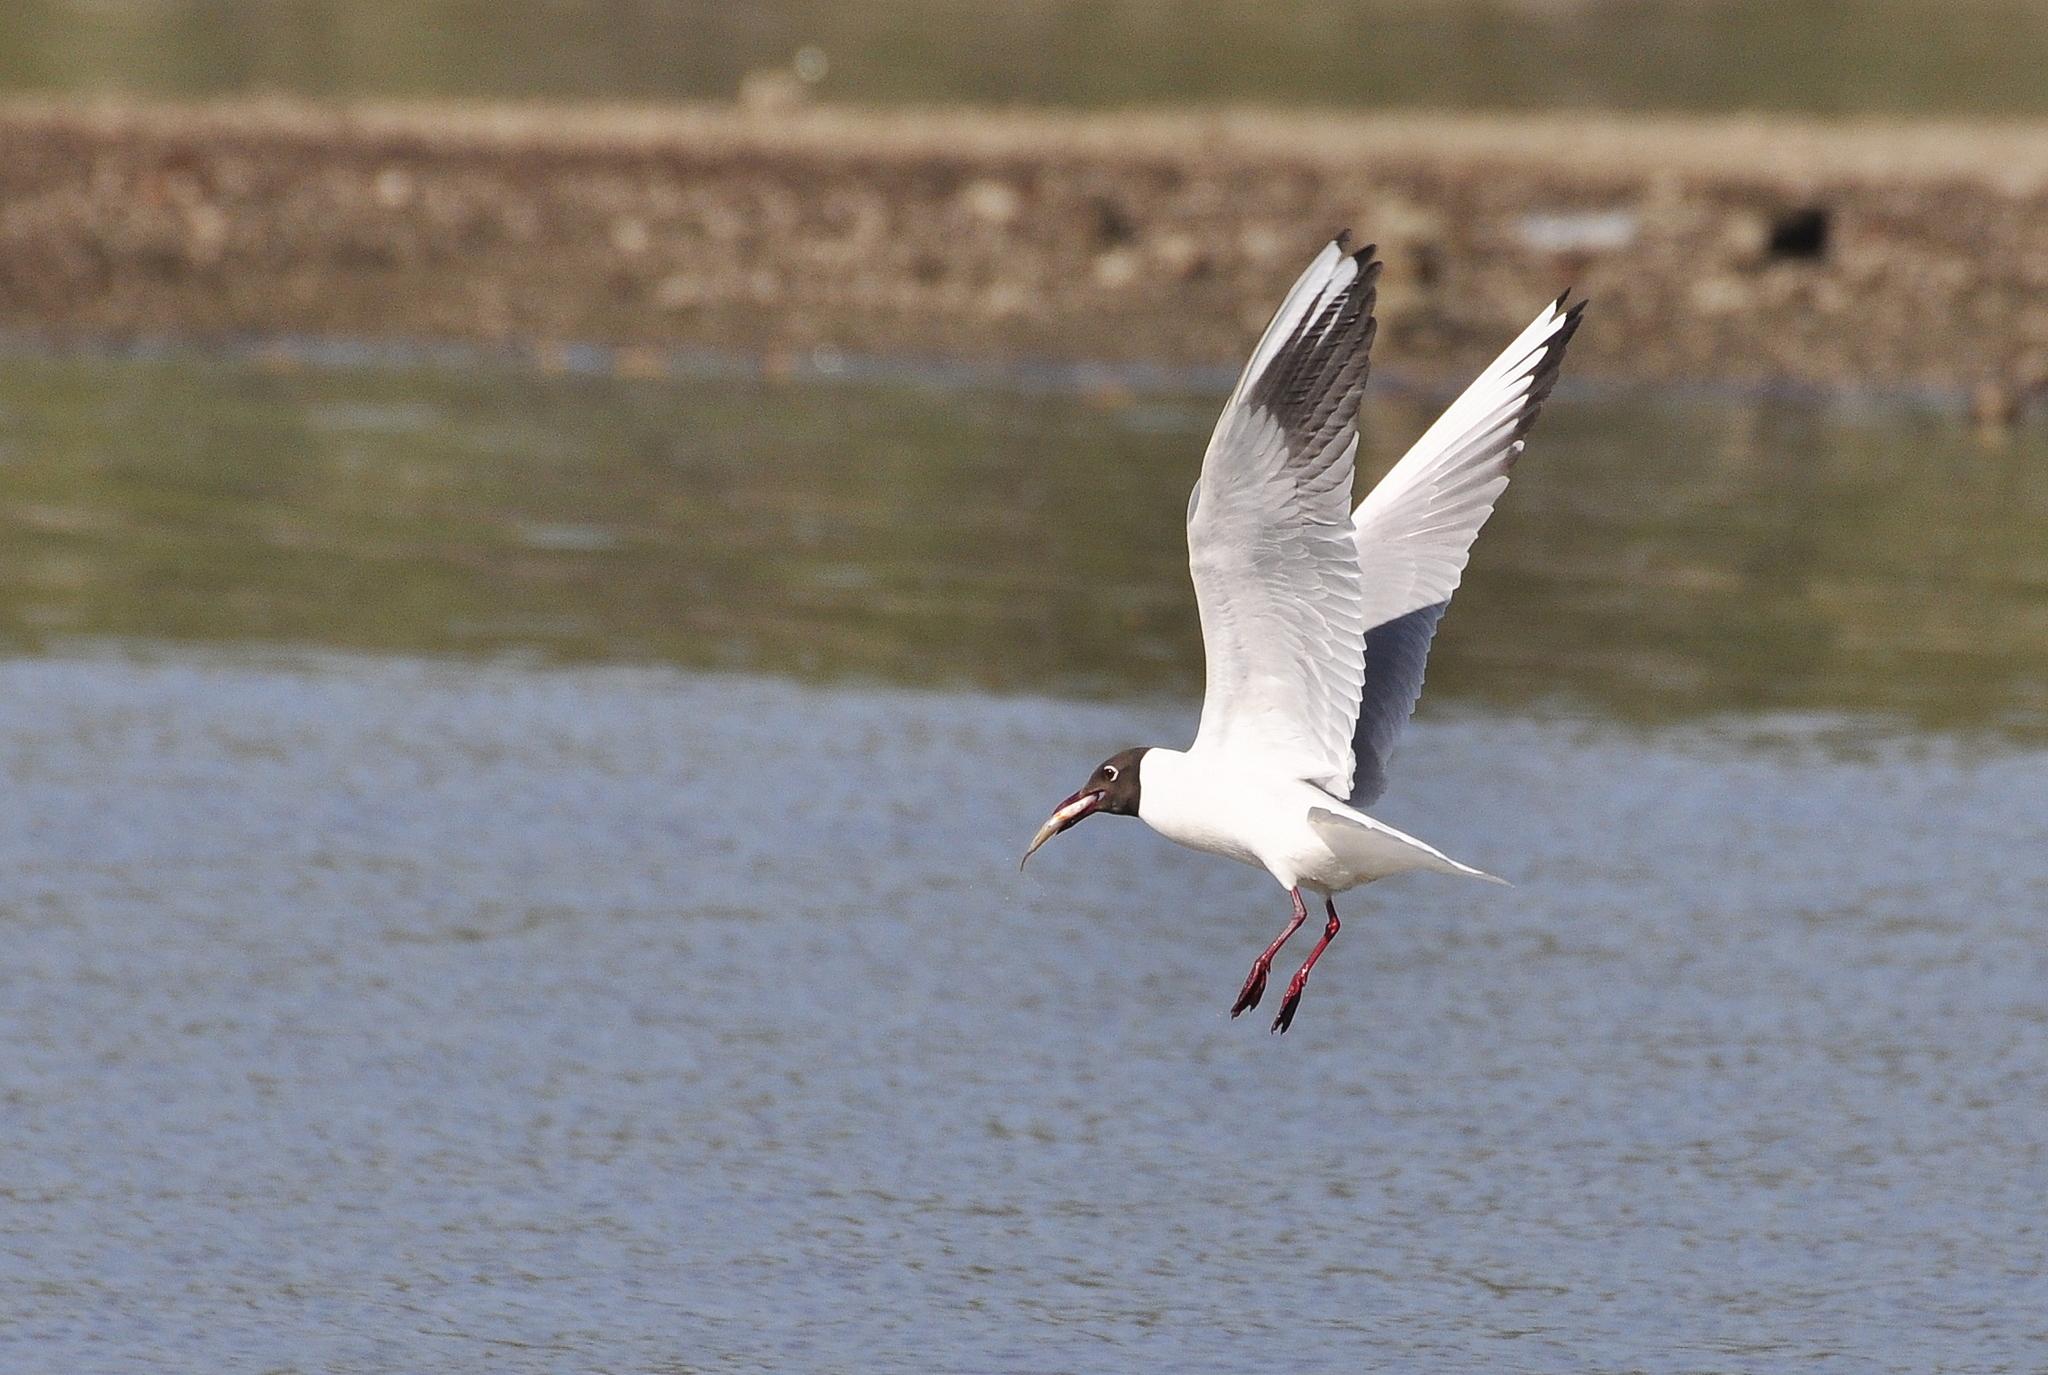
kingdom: Animalia
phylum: Chordata
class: Aves
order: Charadriiformes
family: Laridae
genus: Chroicocephalus
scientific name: Chroicocephalus ridibundus
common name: Black-headed gull
